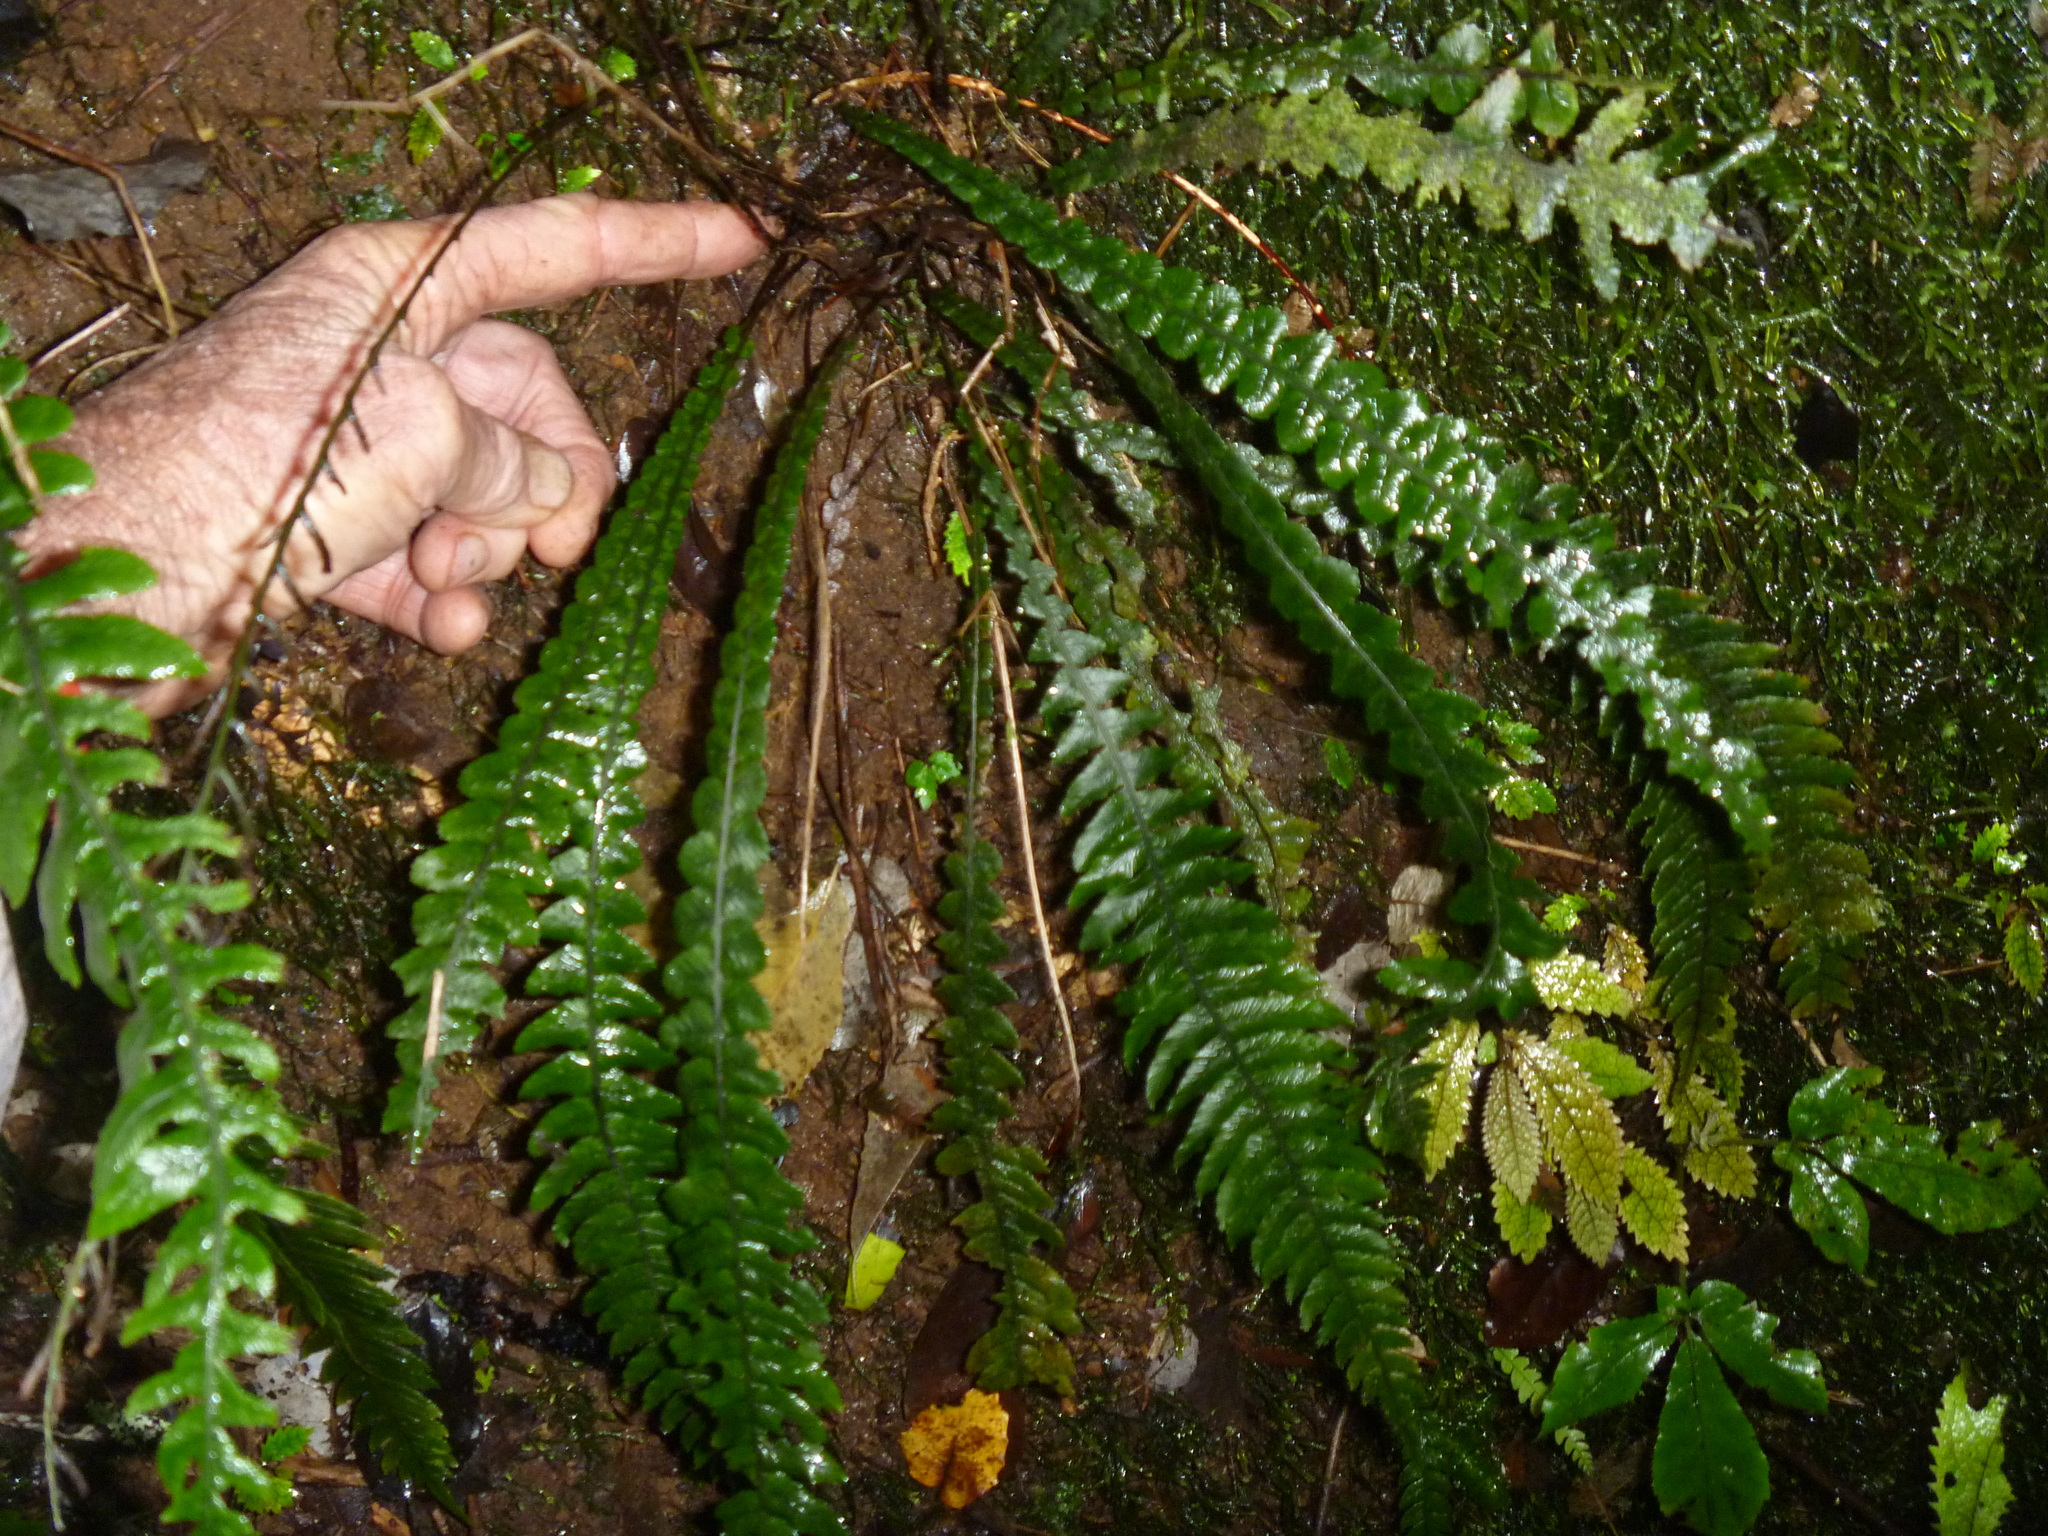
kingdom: Plantae
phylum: Tracheophyta
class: Polypodiopsida
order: Polypodiales
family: Blechnaceae
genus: Austroblechnum
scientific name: Austroblechnum lanceolatum
